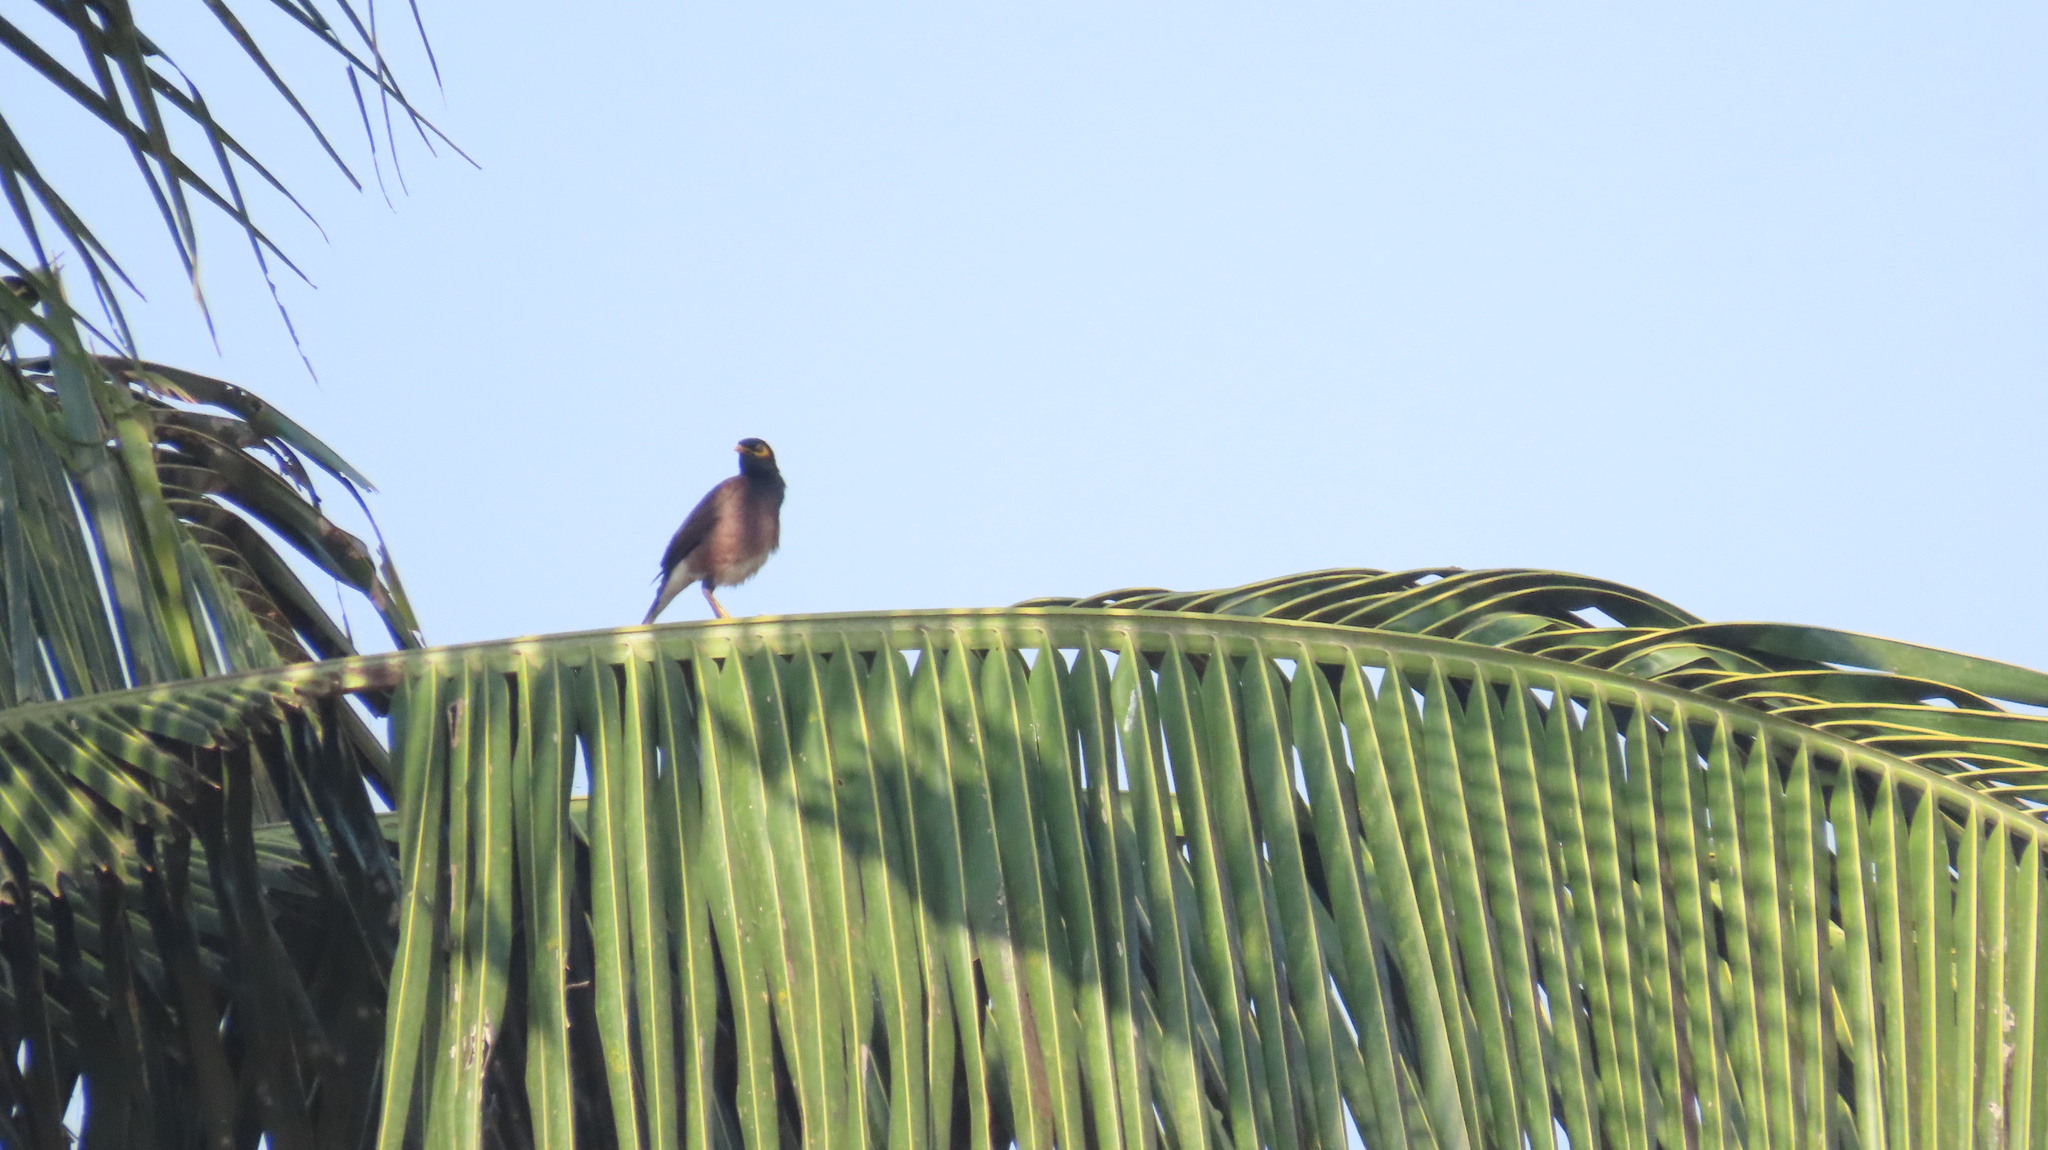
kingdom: Animalia
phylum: Chordata
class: Aves
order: Passeriformes
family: Sturnidae
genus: Acridotheres
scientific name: Acridotheres tristis
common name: Common myna
